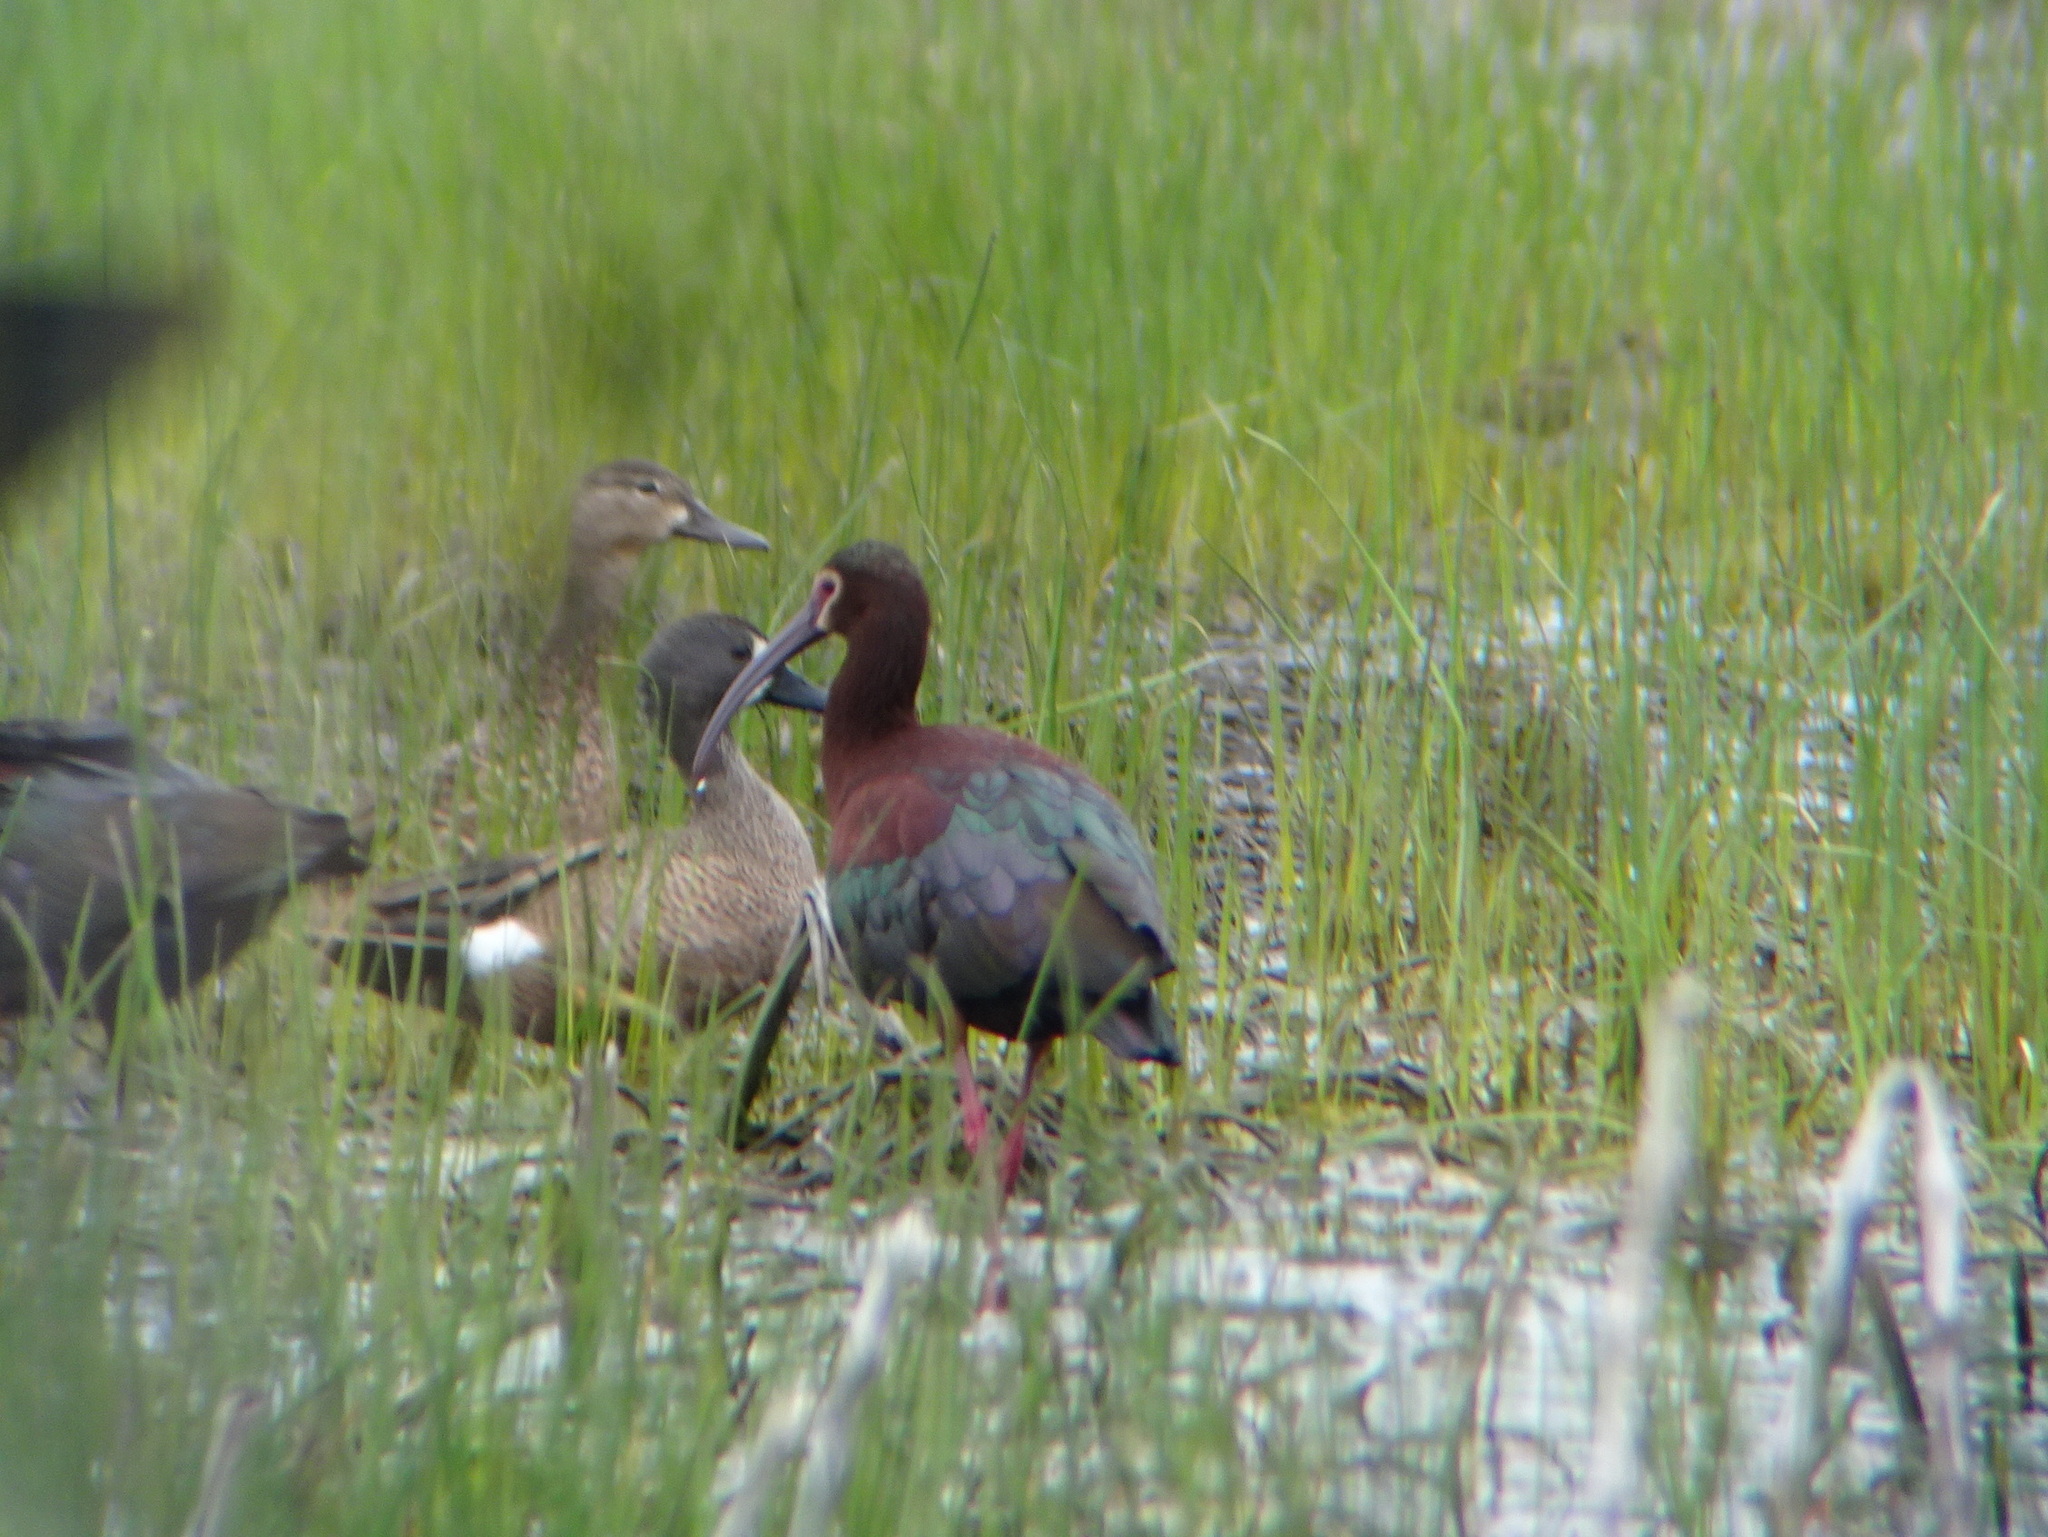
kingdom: Animalia
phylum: Chordata
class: Aves
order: Anseriformes
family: Anatidae
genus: Spatula
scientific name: Spatula discors
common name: Blue-winged teal
